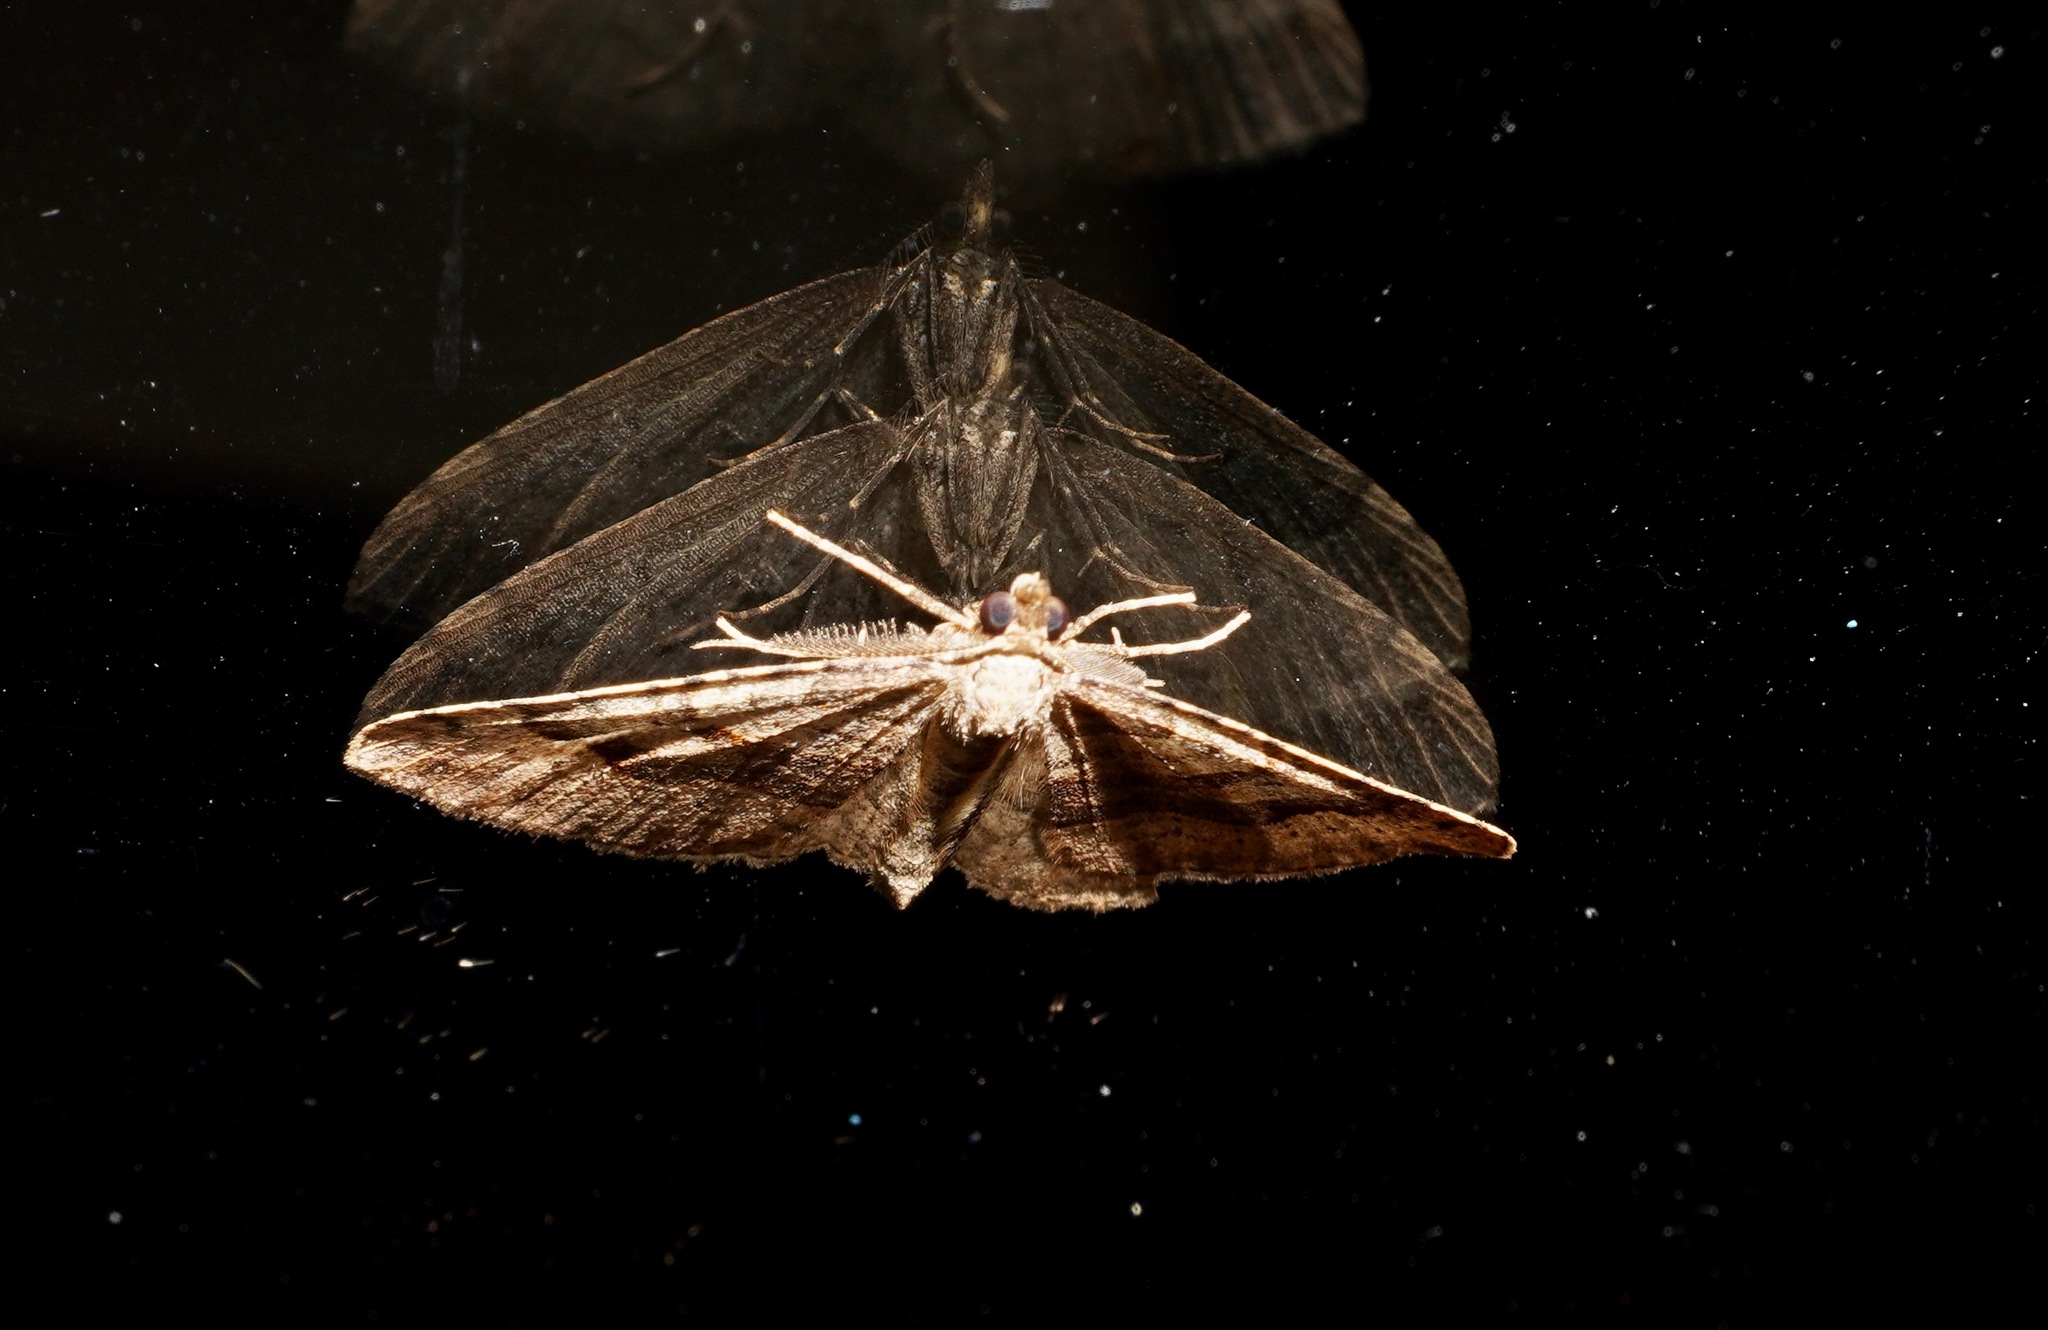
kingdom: Animalia
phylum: Arthropoda
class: Insecta
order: Lepidoptera
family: Geometridae
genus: Epyaxa
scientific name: Epyaxa rosearia
